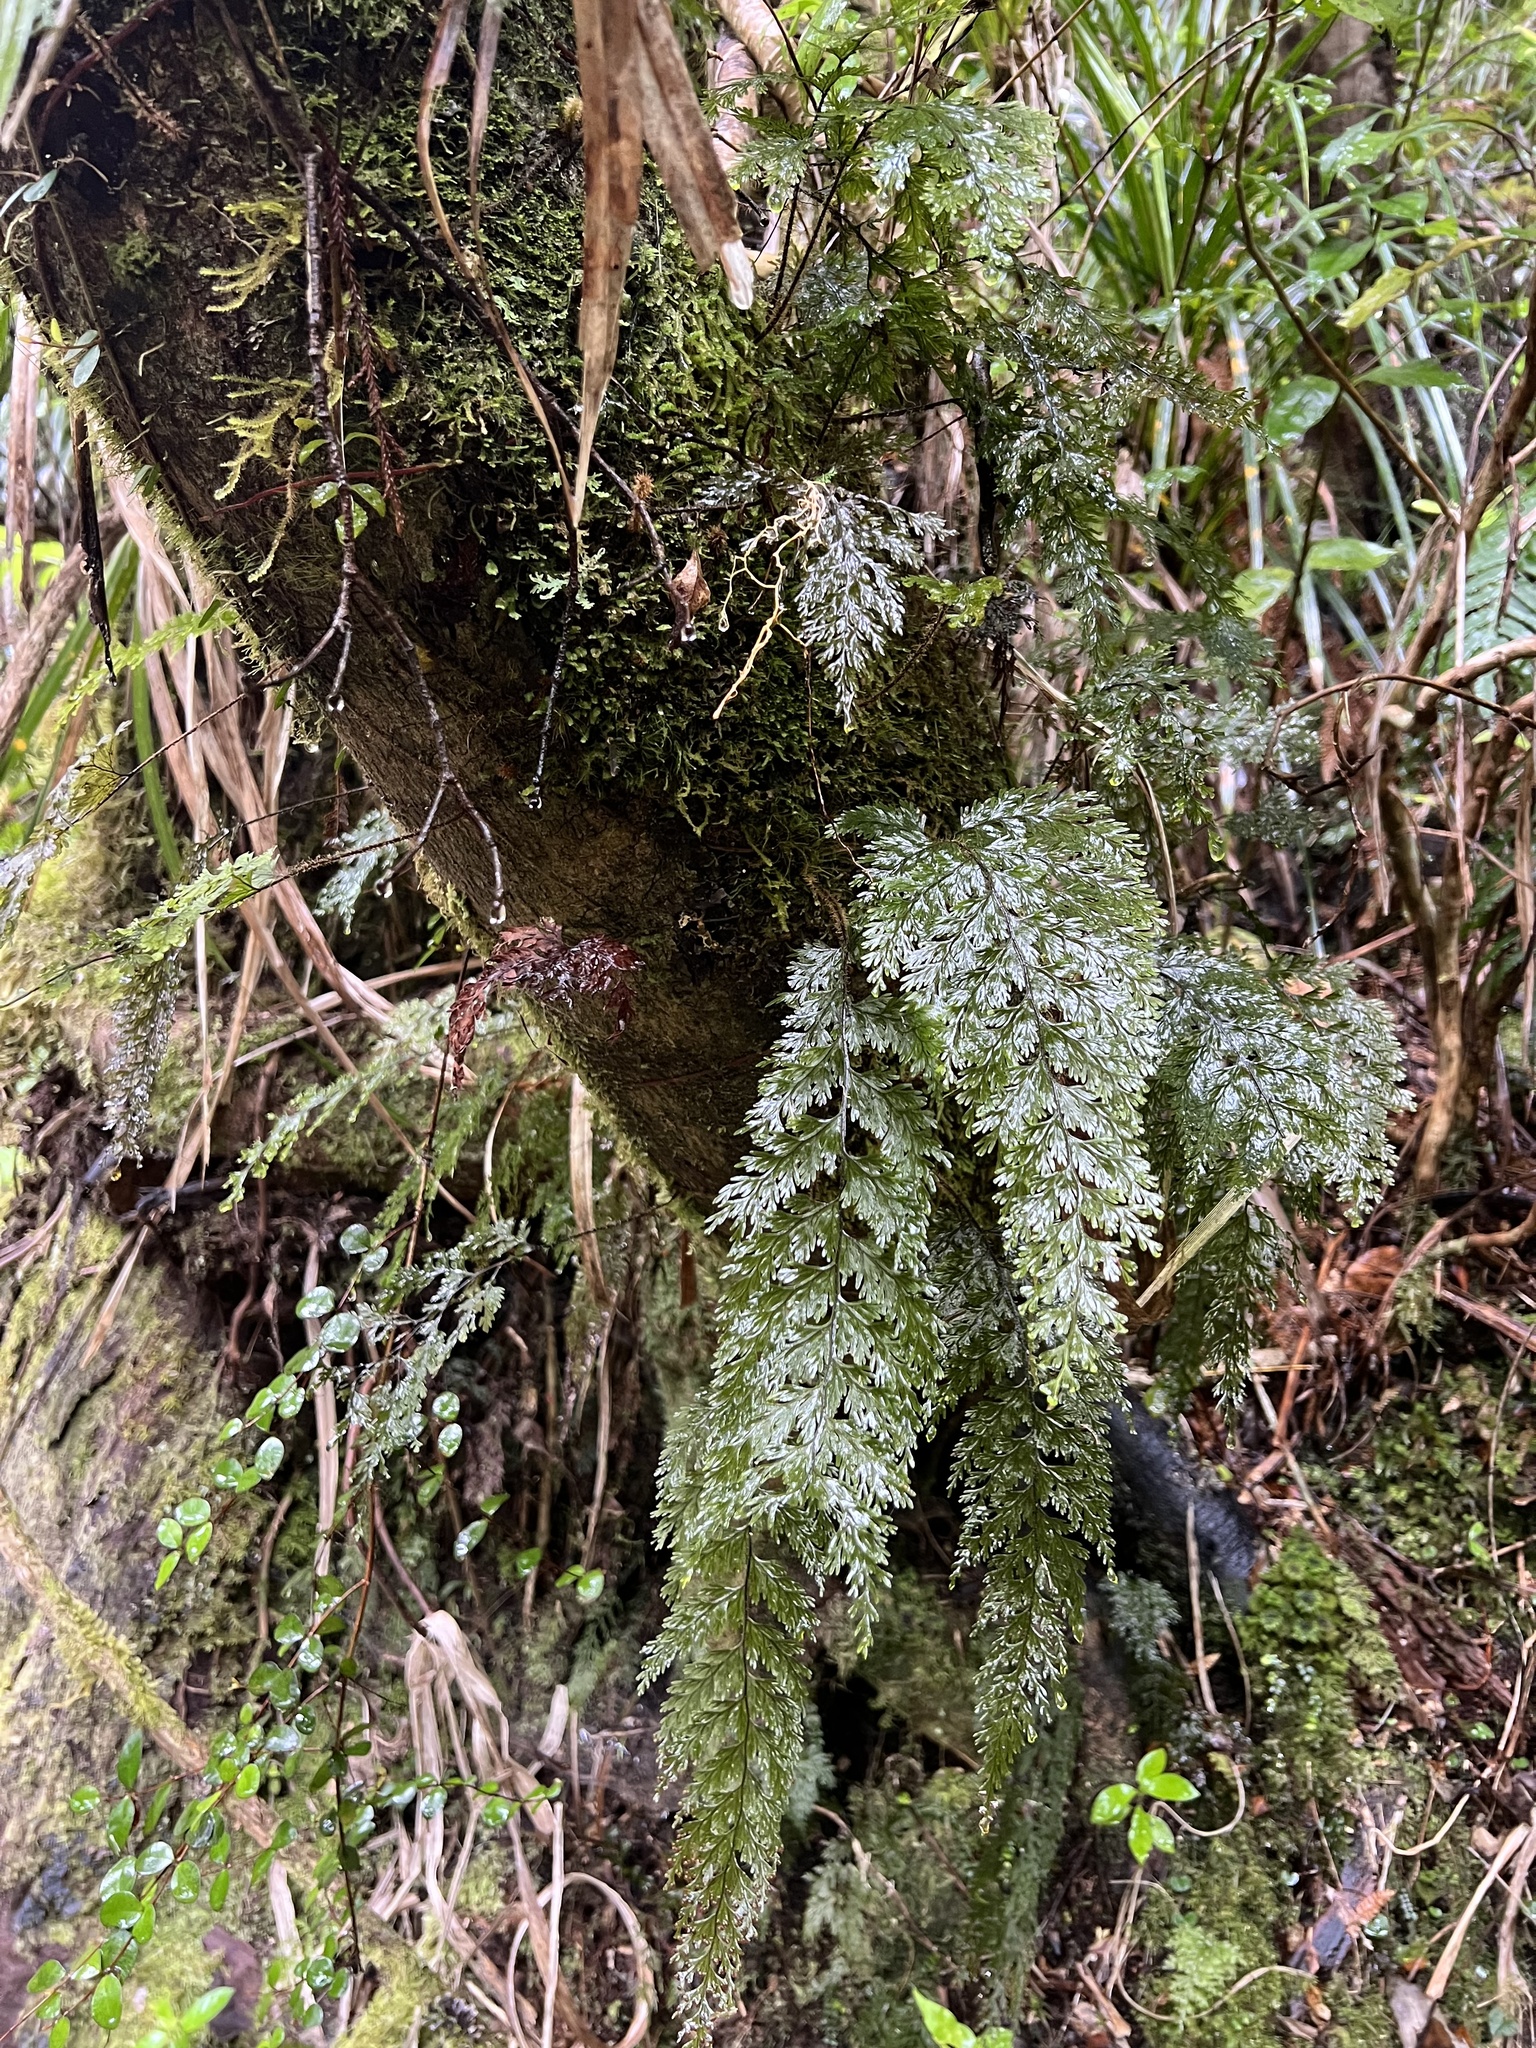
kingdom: Plantae
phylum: Tracheophyta
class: Polypodiopsida
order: Hymenophyllales
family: Hymenophyllaceae
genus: Hymenophyllum
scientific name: Hymenophyllum scabrum
